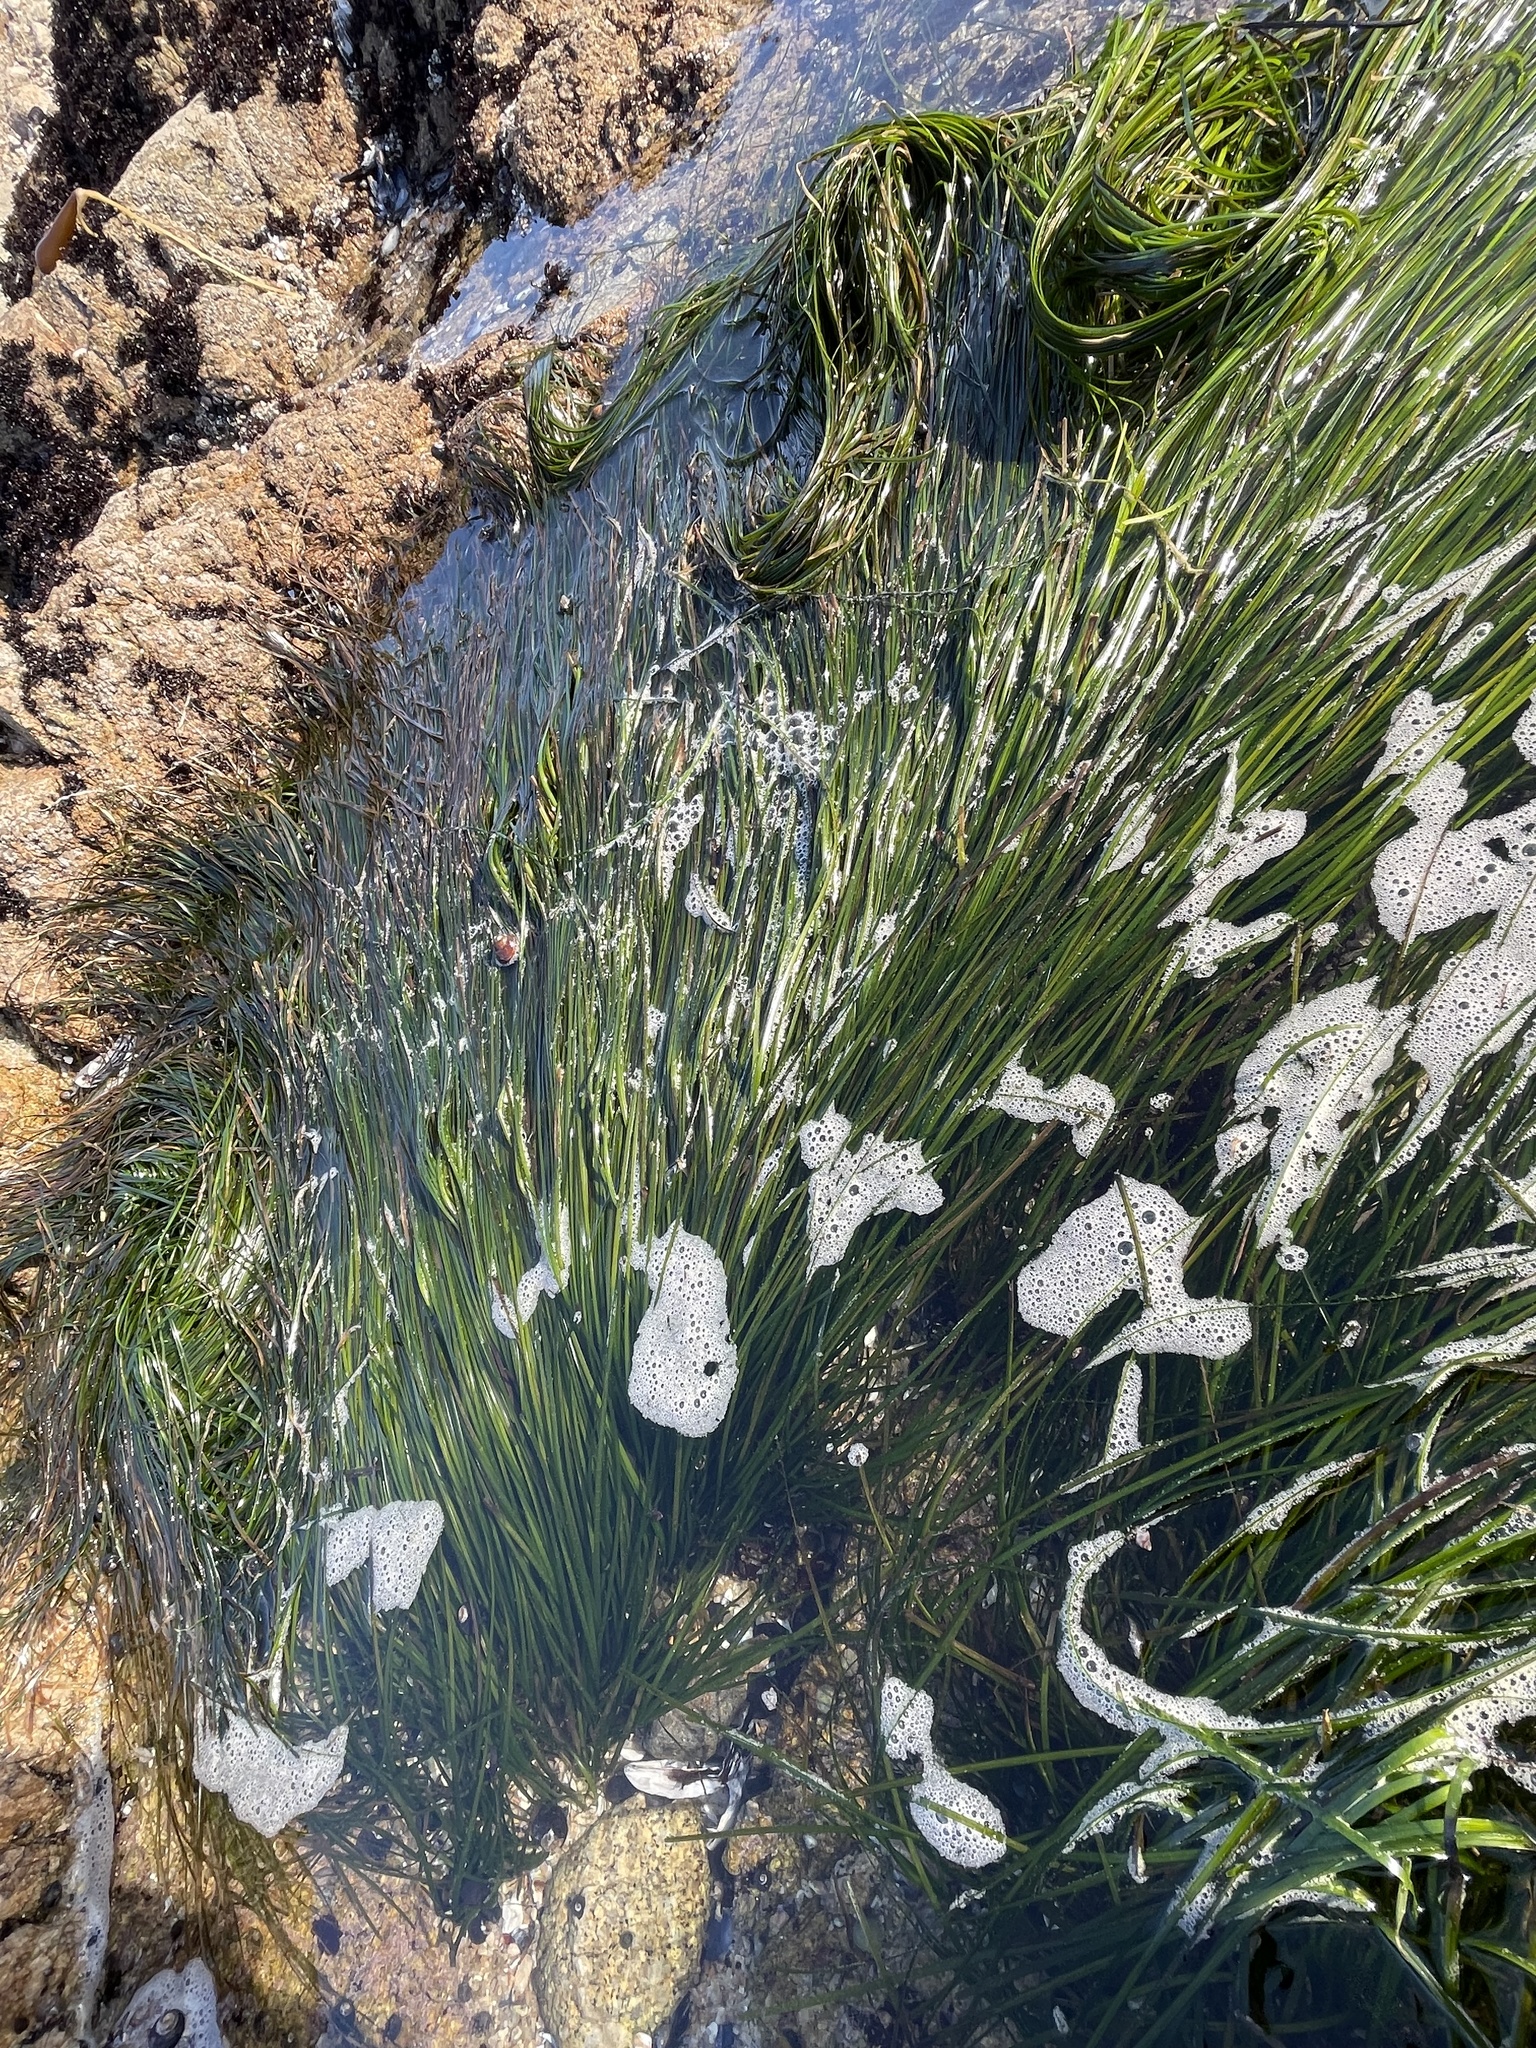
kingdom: Plantae
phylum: Tracheophyta
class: Liliopsida
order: Alismatales
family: Zosteraceae
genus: Phyllospadix
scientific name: Phyllospadix torreyi
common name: Surfgrass
